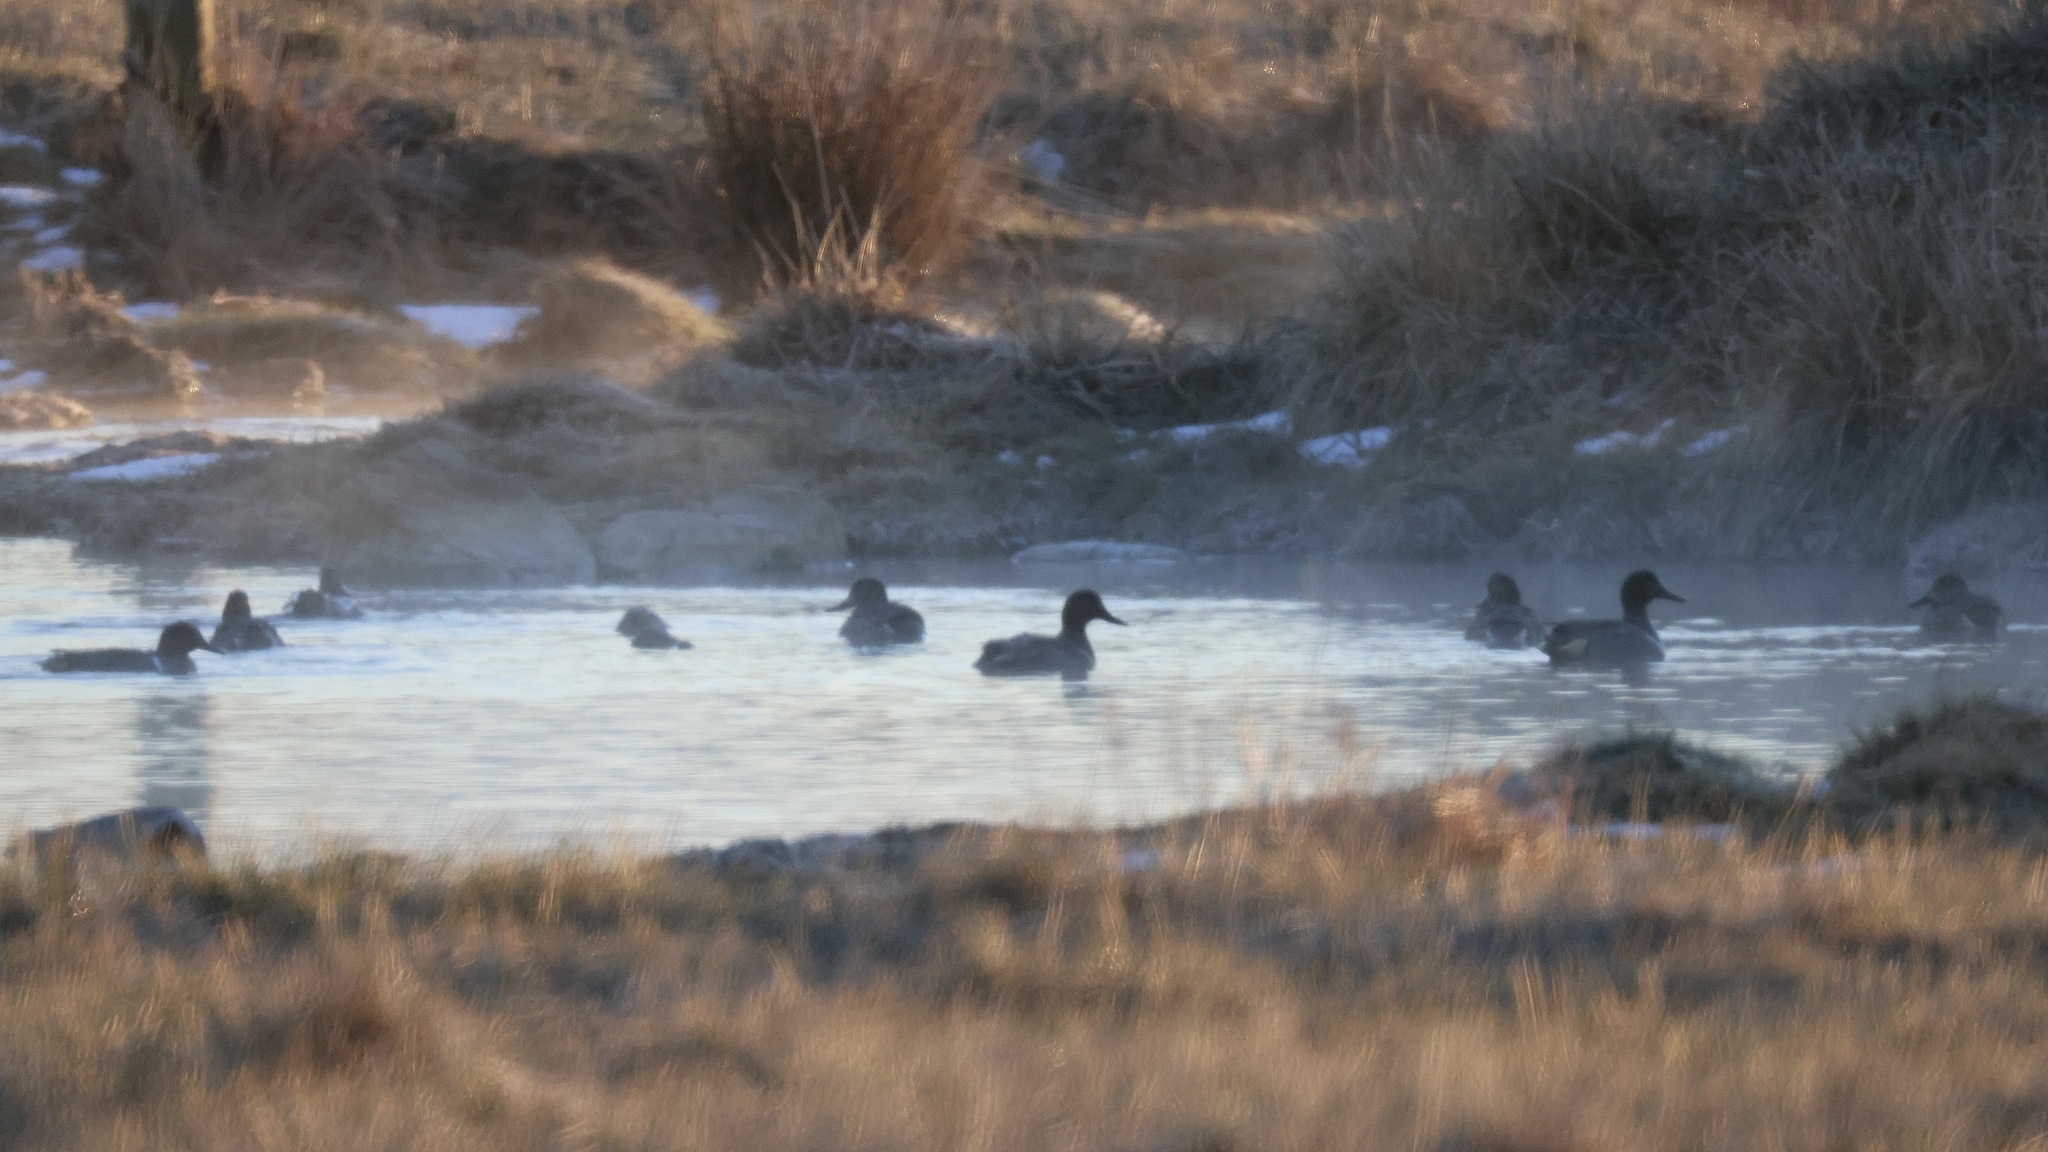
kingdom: Animalia
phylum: Chordata
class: Aves
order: Anseriformes
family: Anatidae
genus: Anas
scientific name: Anas crecca
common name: Eurasian teal
